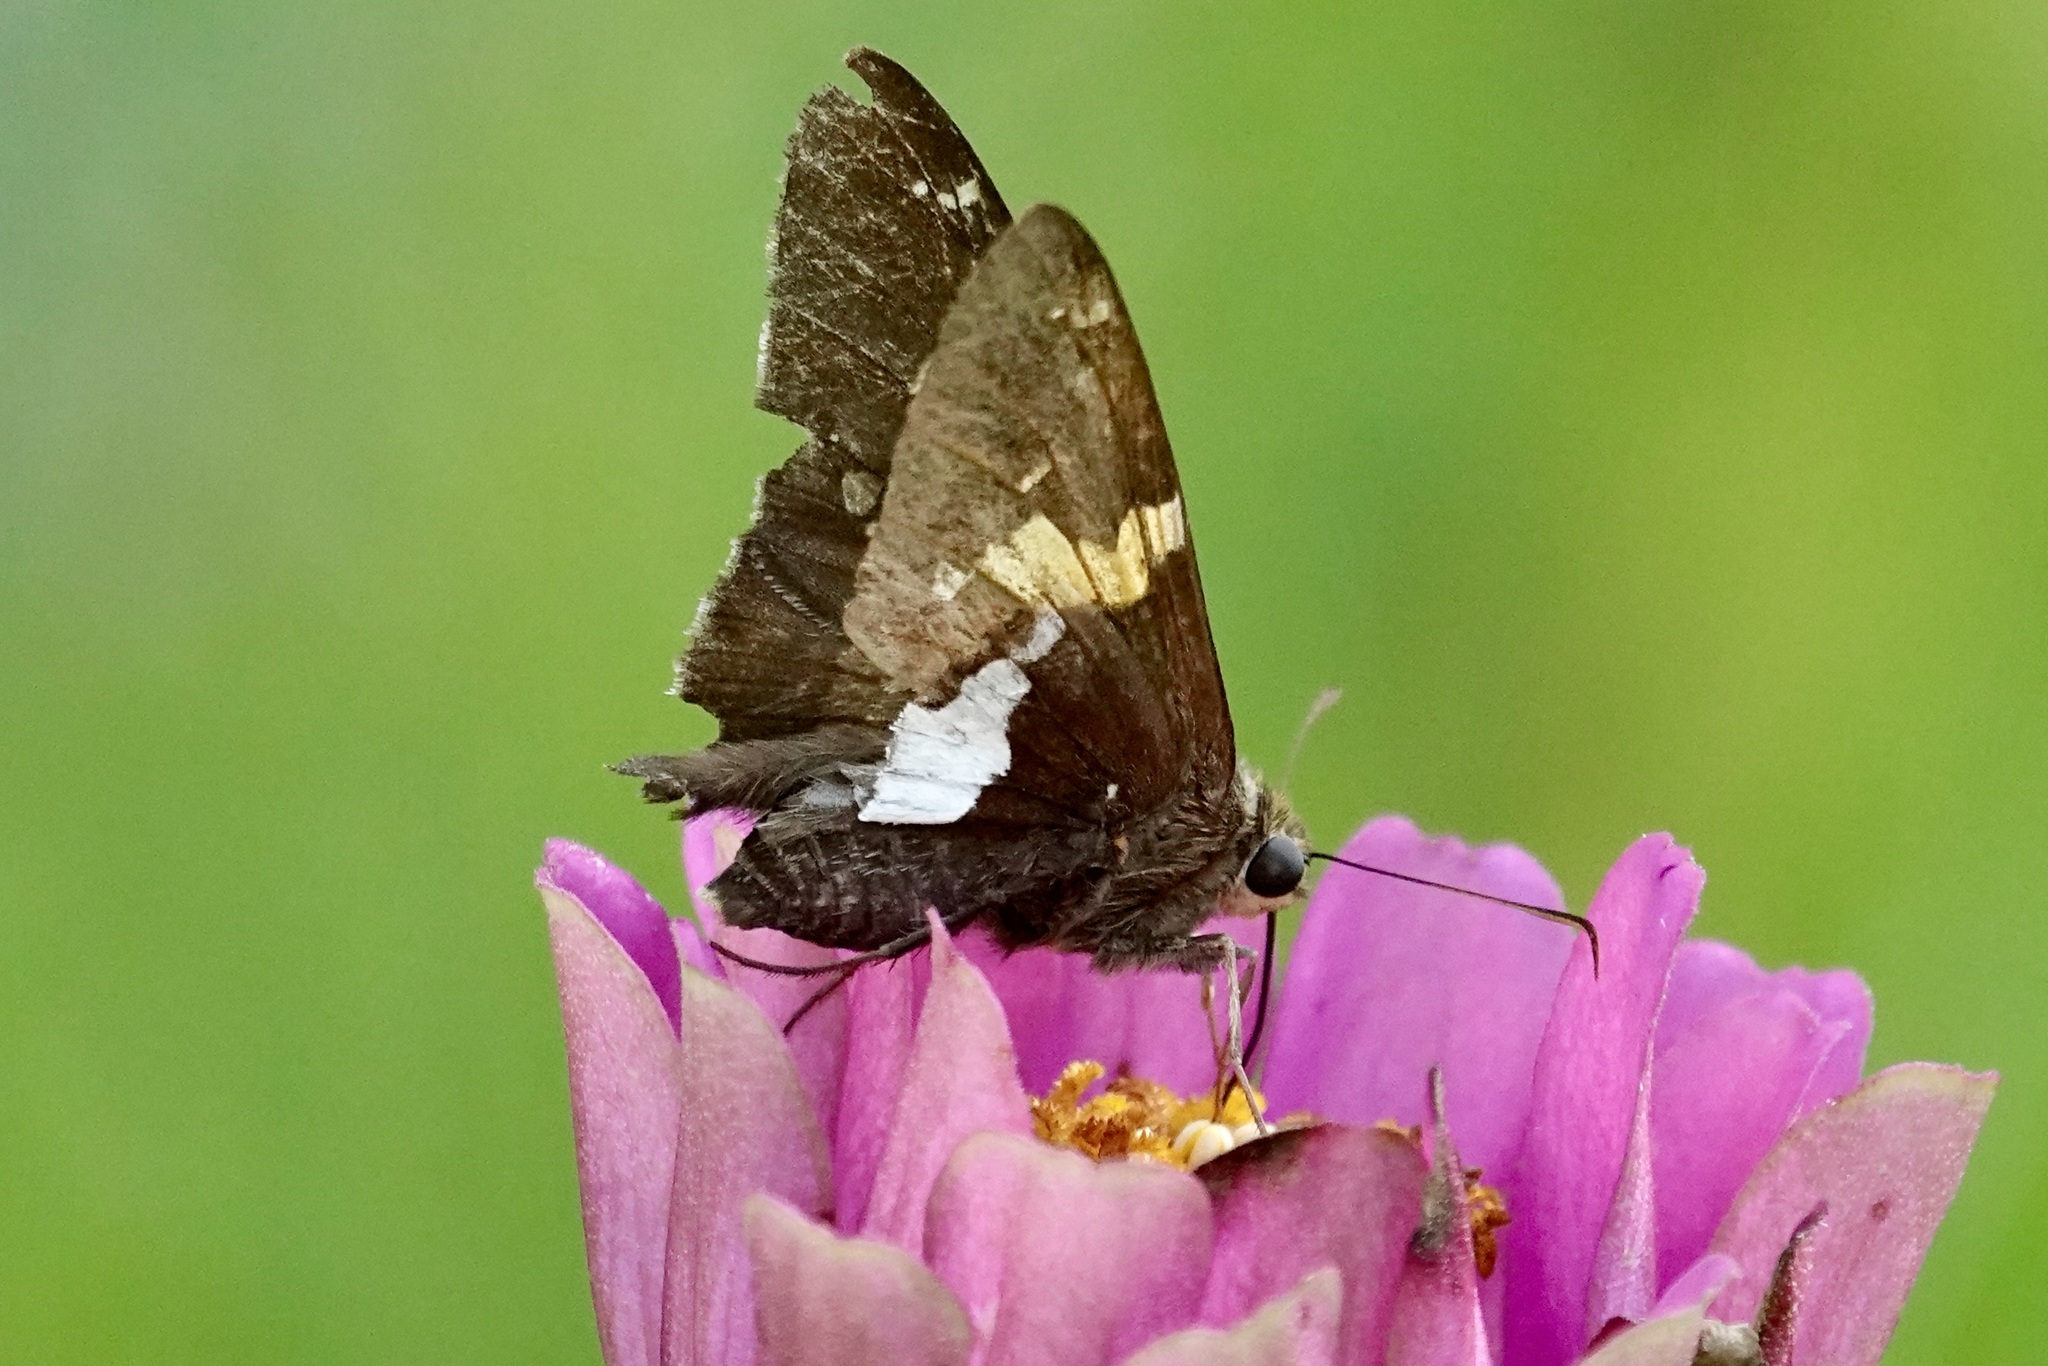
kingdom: Animalia
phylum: Arthropoda
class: Insecta
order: Lepidoptera
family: Hesperiidae
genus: Epargyreus
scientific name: Epargyreus clarus
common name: Silver-spotted skipper
